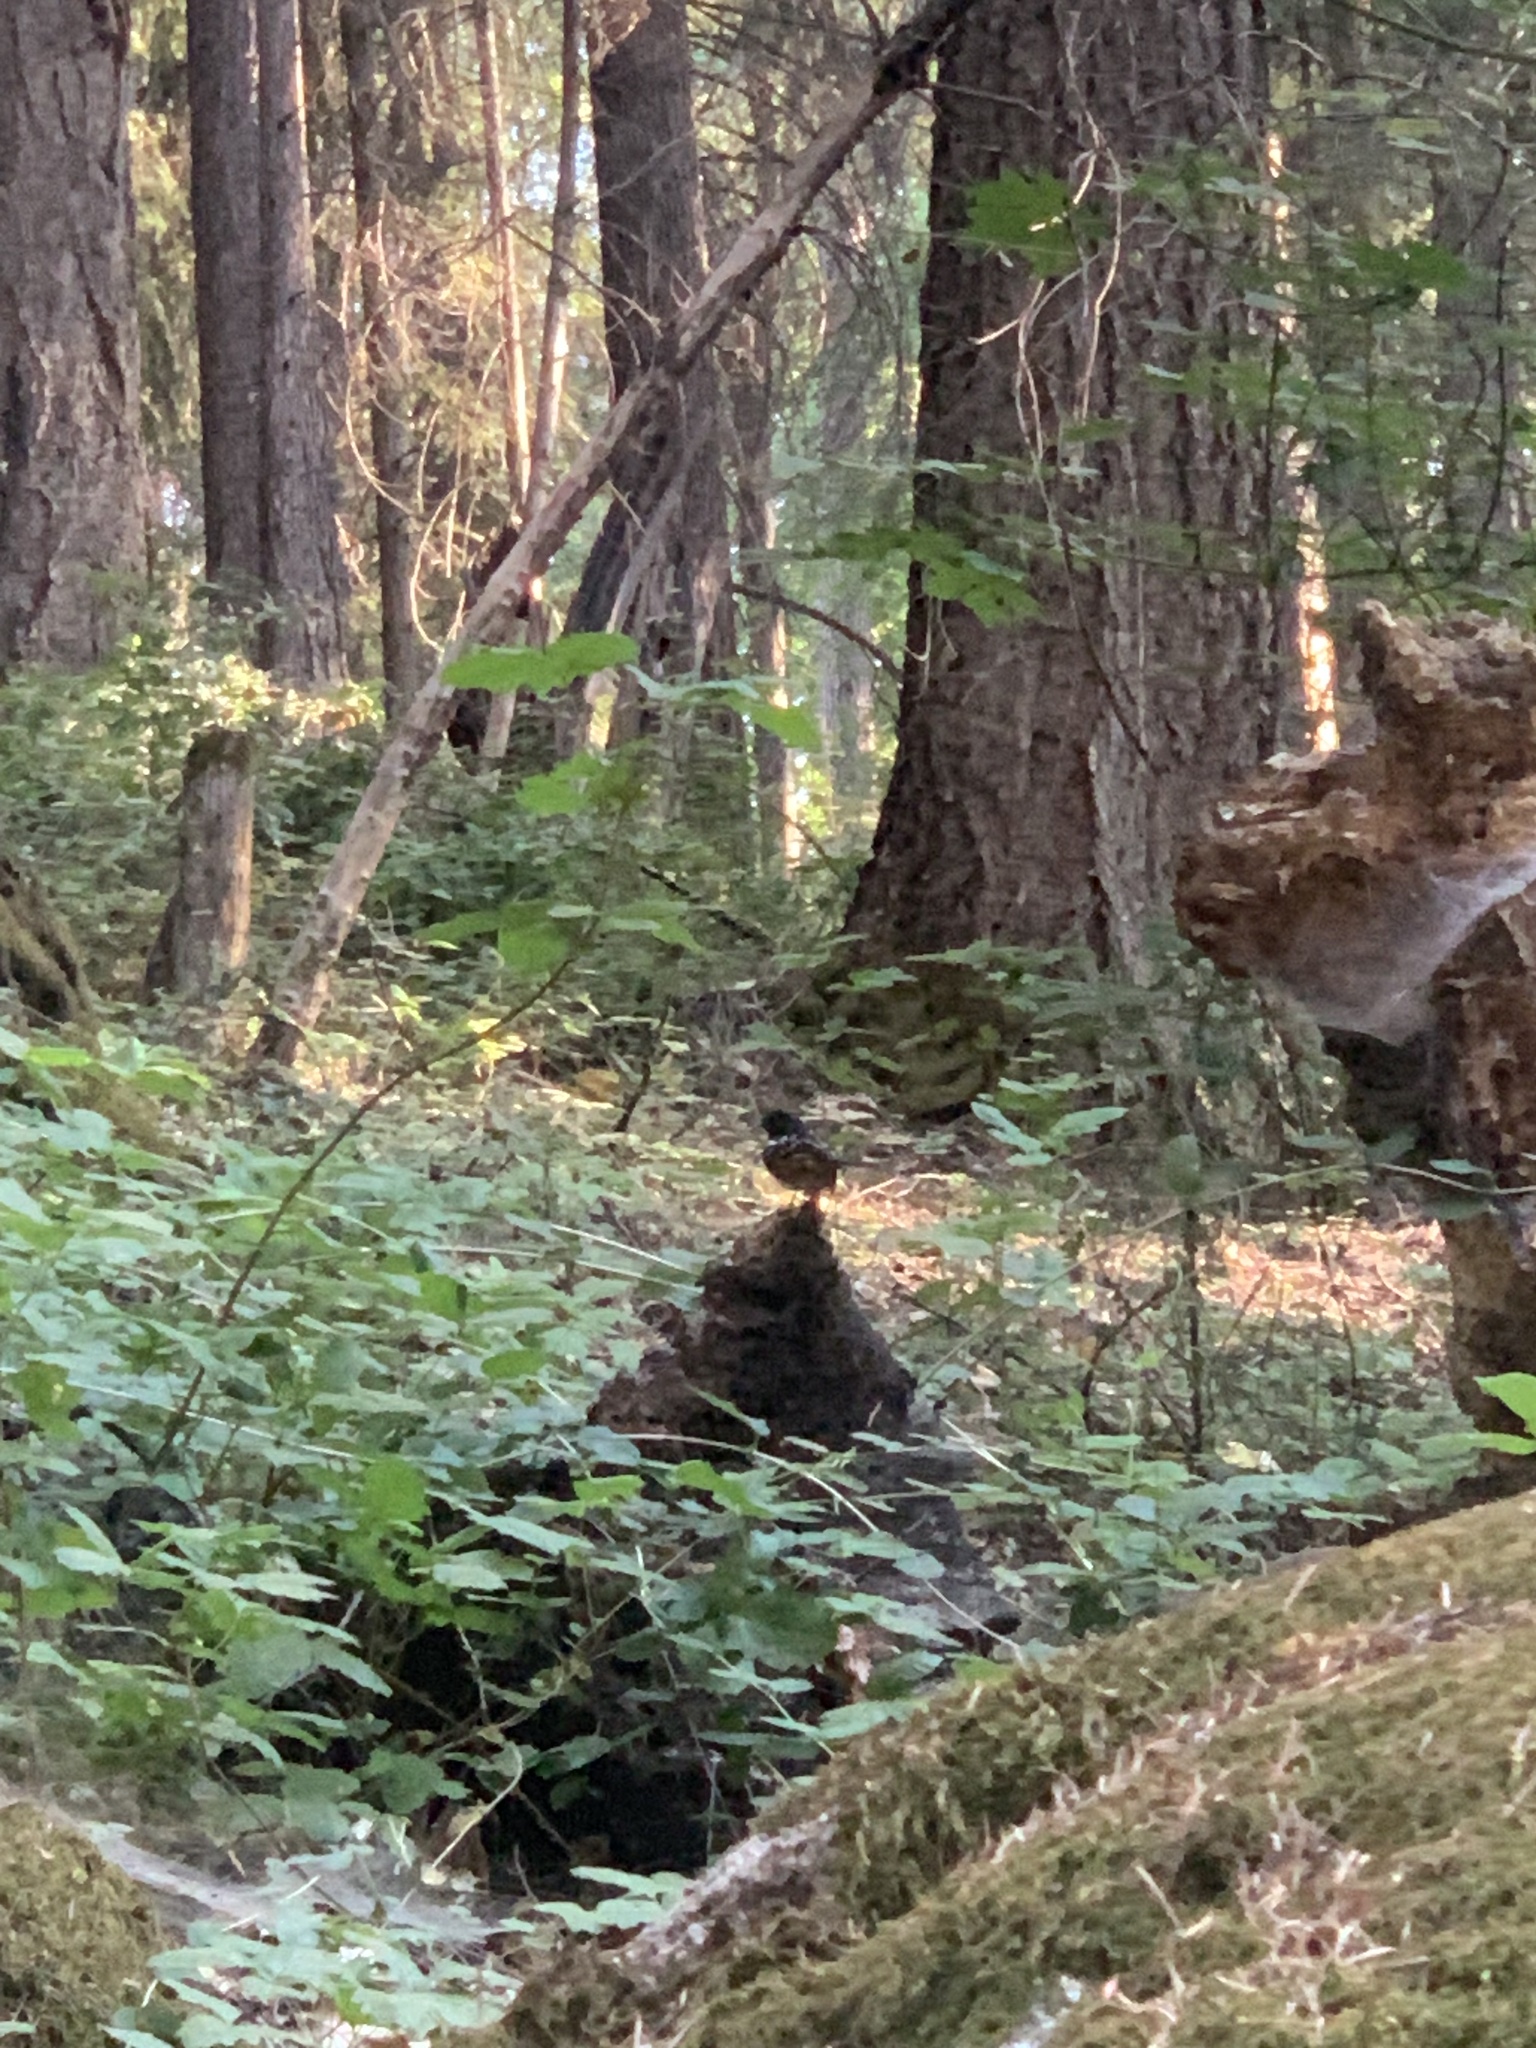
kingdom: Animalia
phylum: Chordata
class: Aves
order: Passeriformes
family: Passerellidae
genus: Pipilo
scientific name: Pipilo maculatus
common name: Spotted towhee
